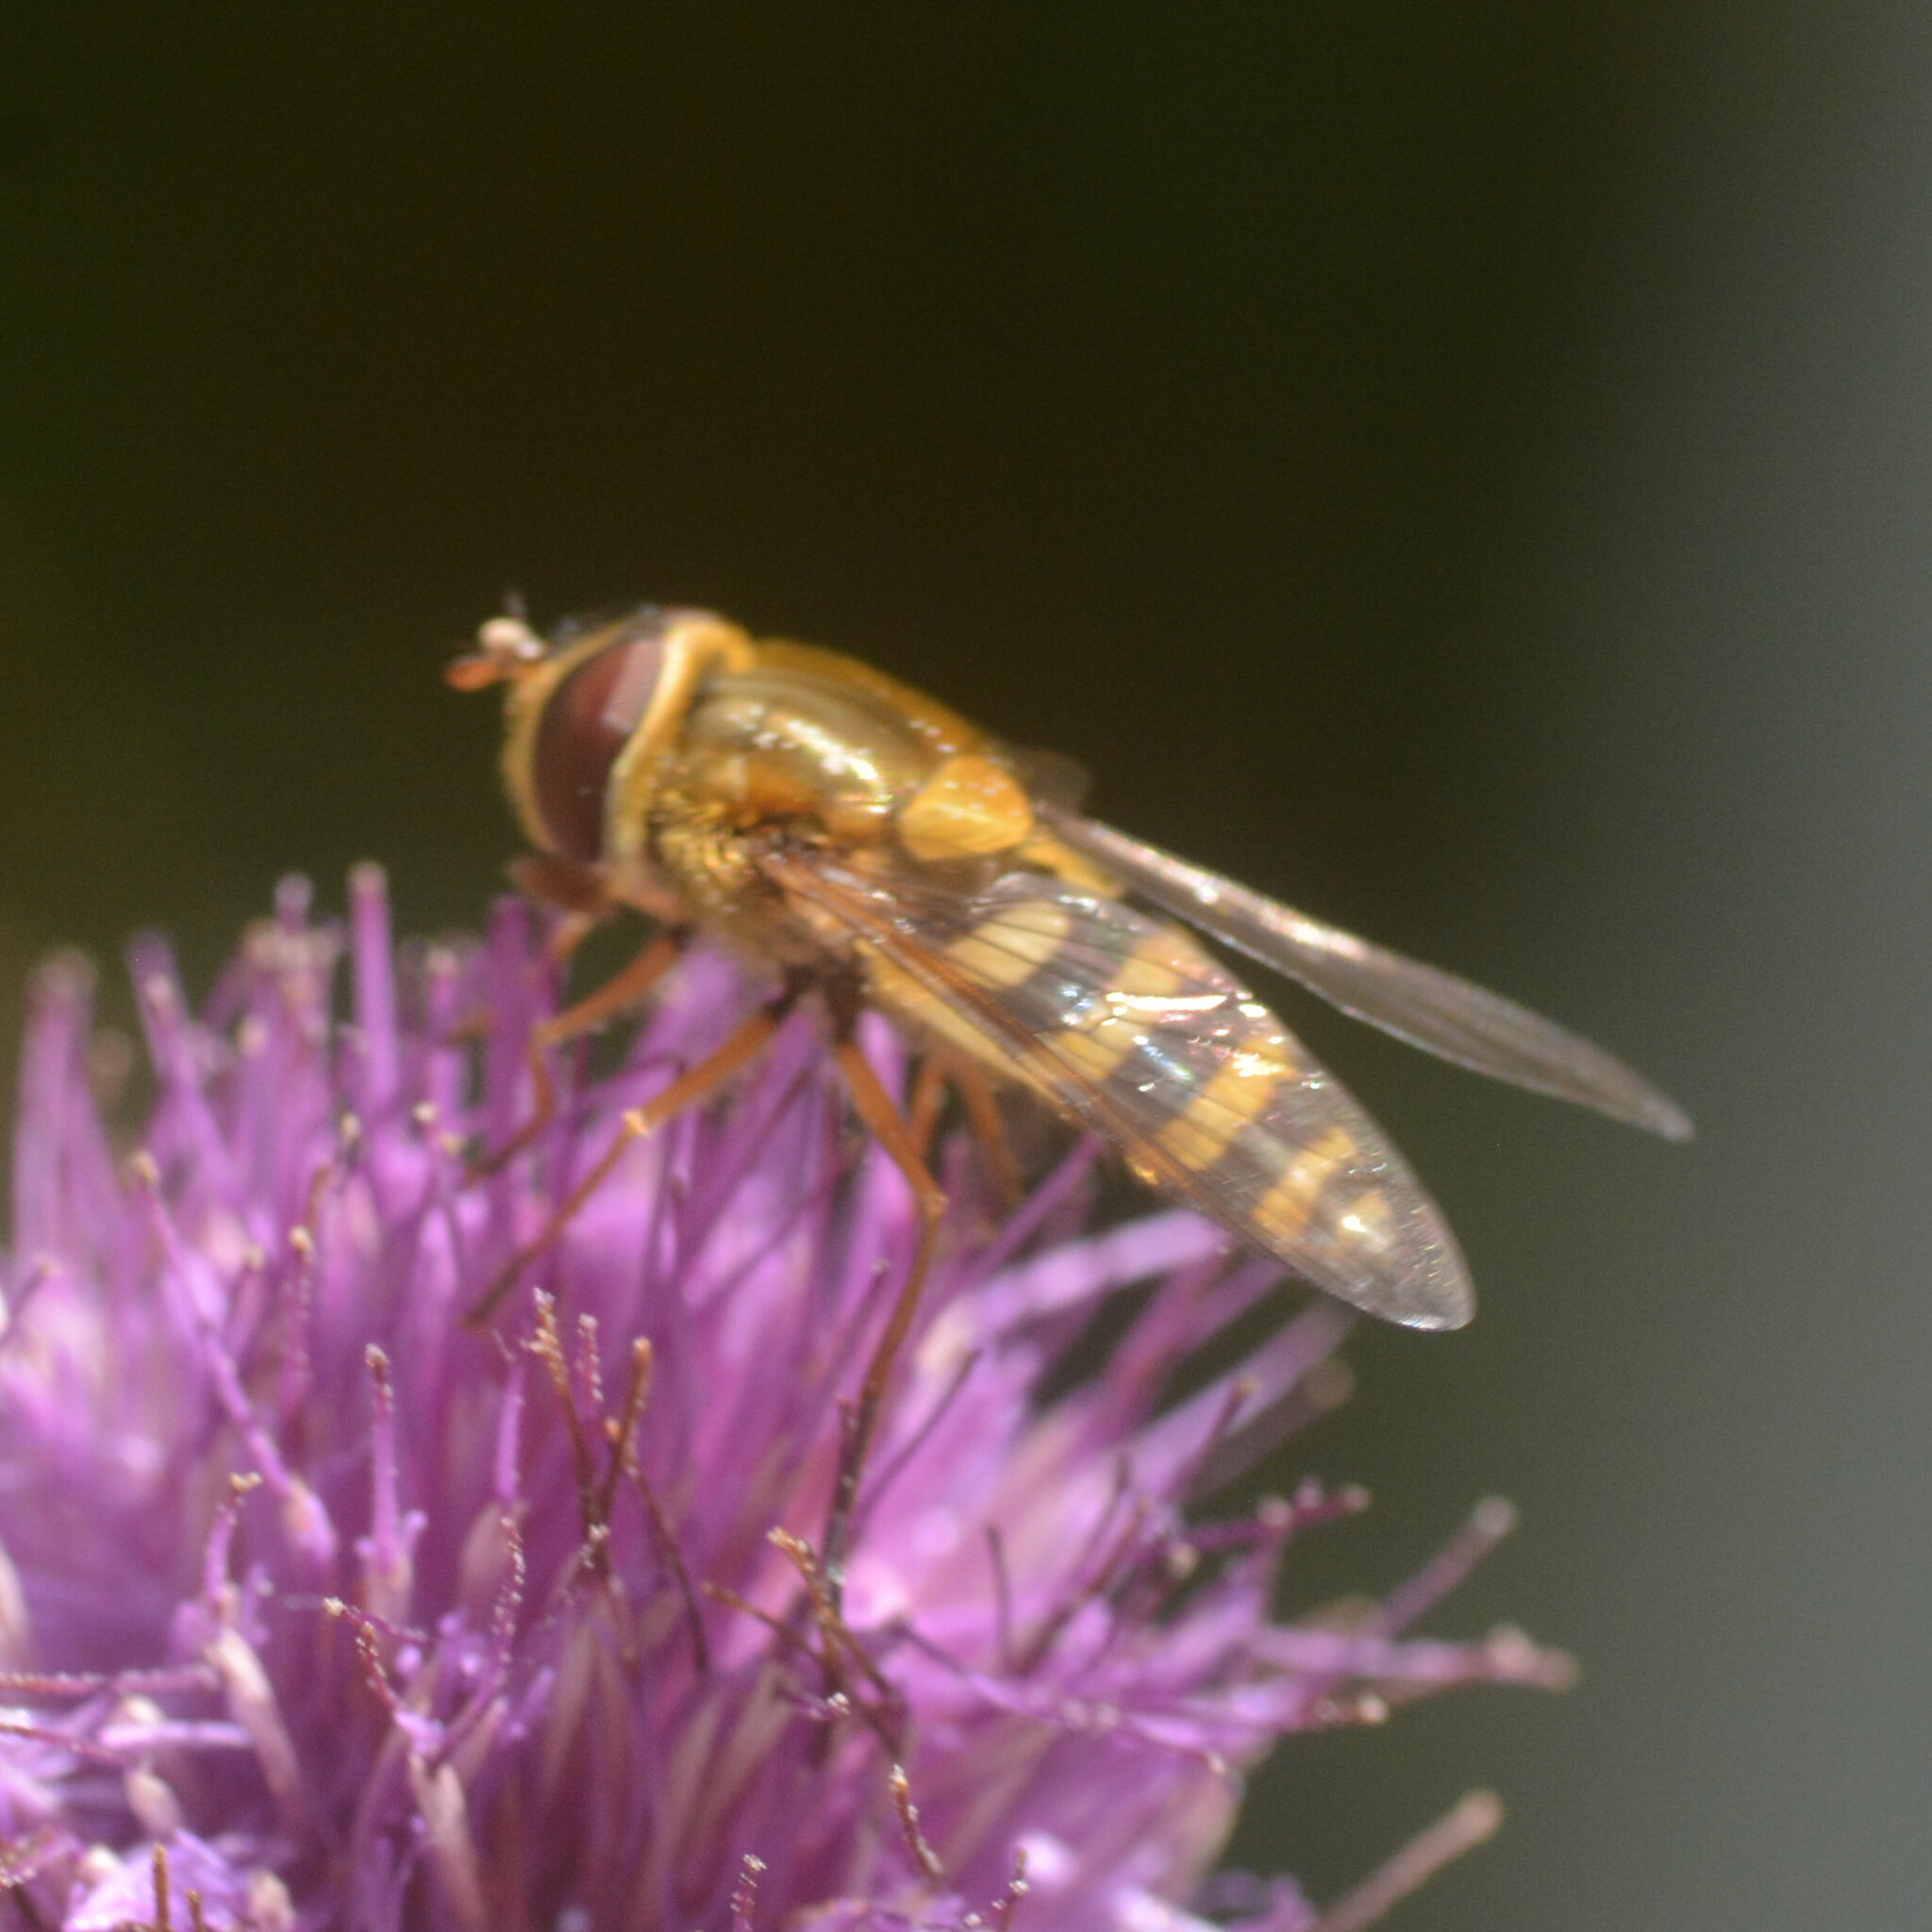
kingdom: Animalia
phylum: Arthropoda
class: Insecta
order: Diptera
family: Syrphidae
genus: Syrphus
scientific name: Syrphus ribesii
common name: Common flower fly
